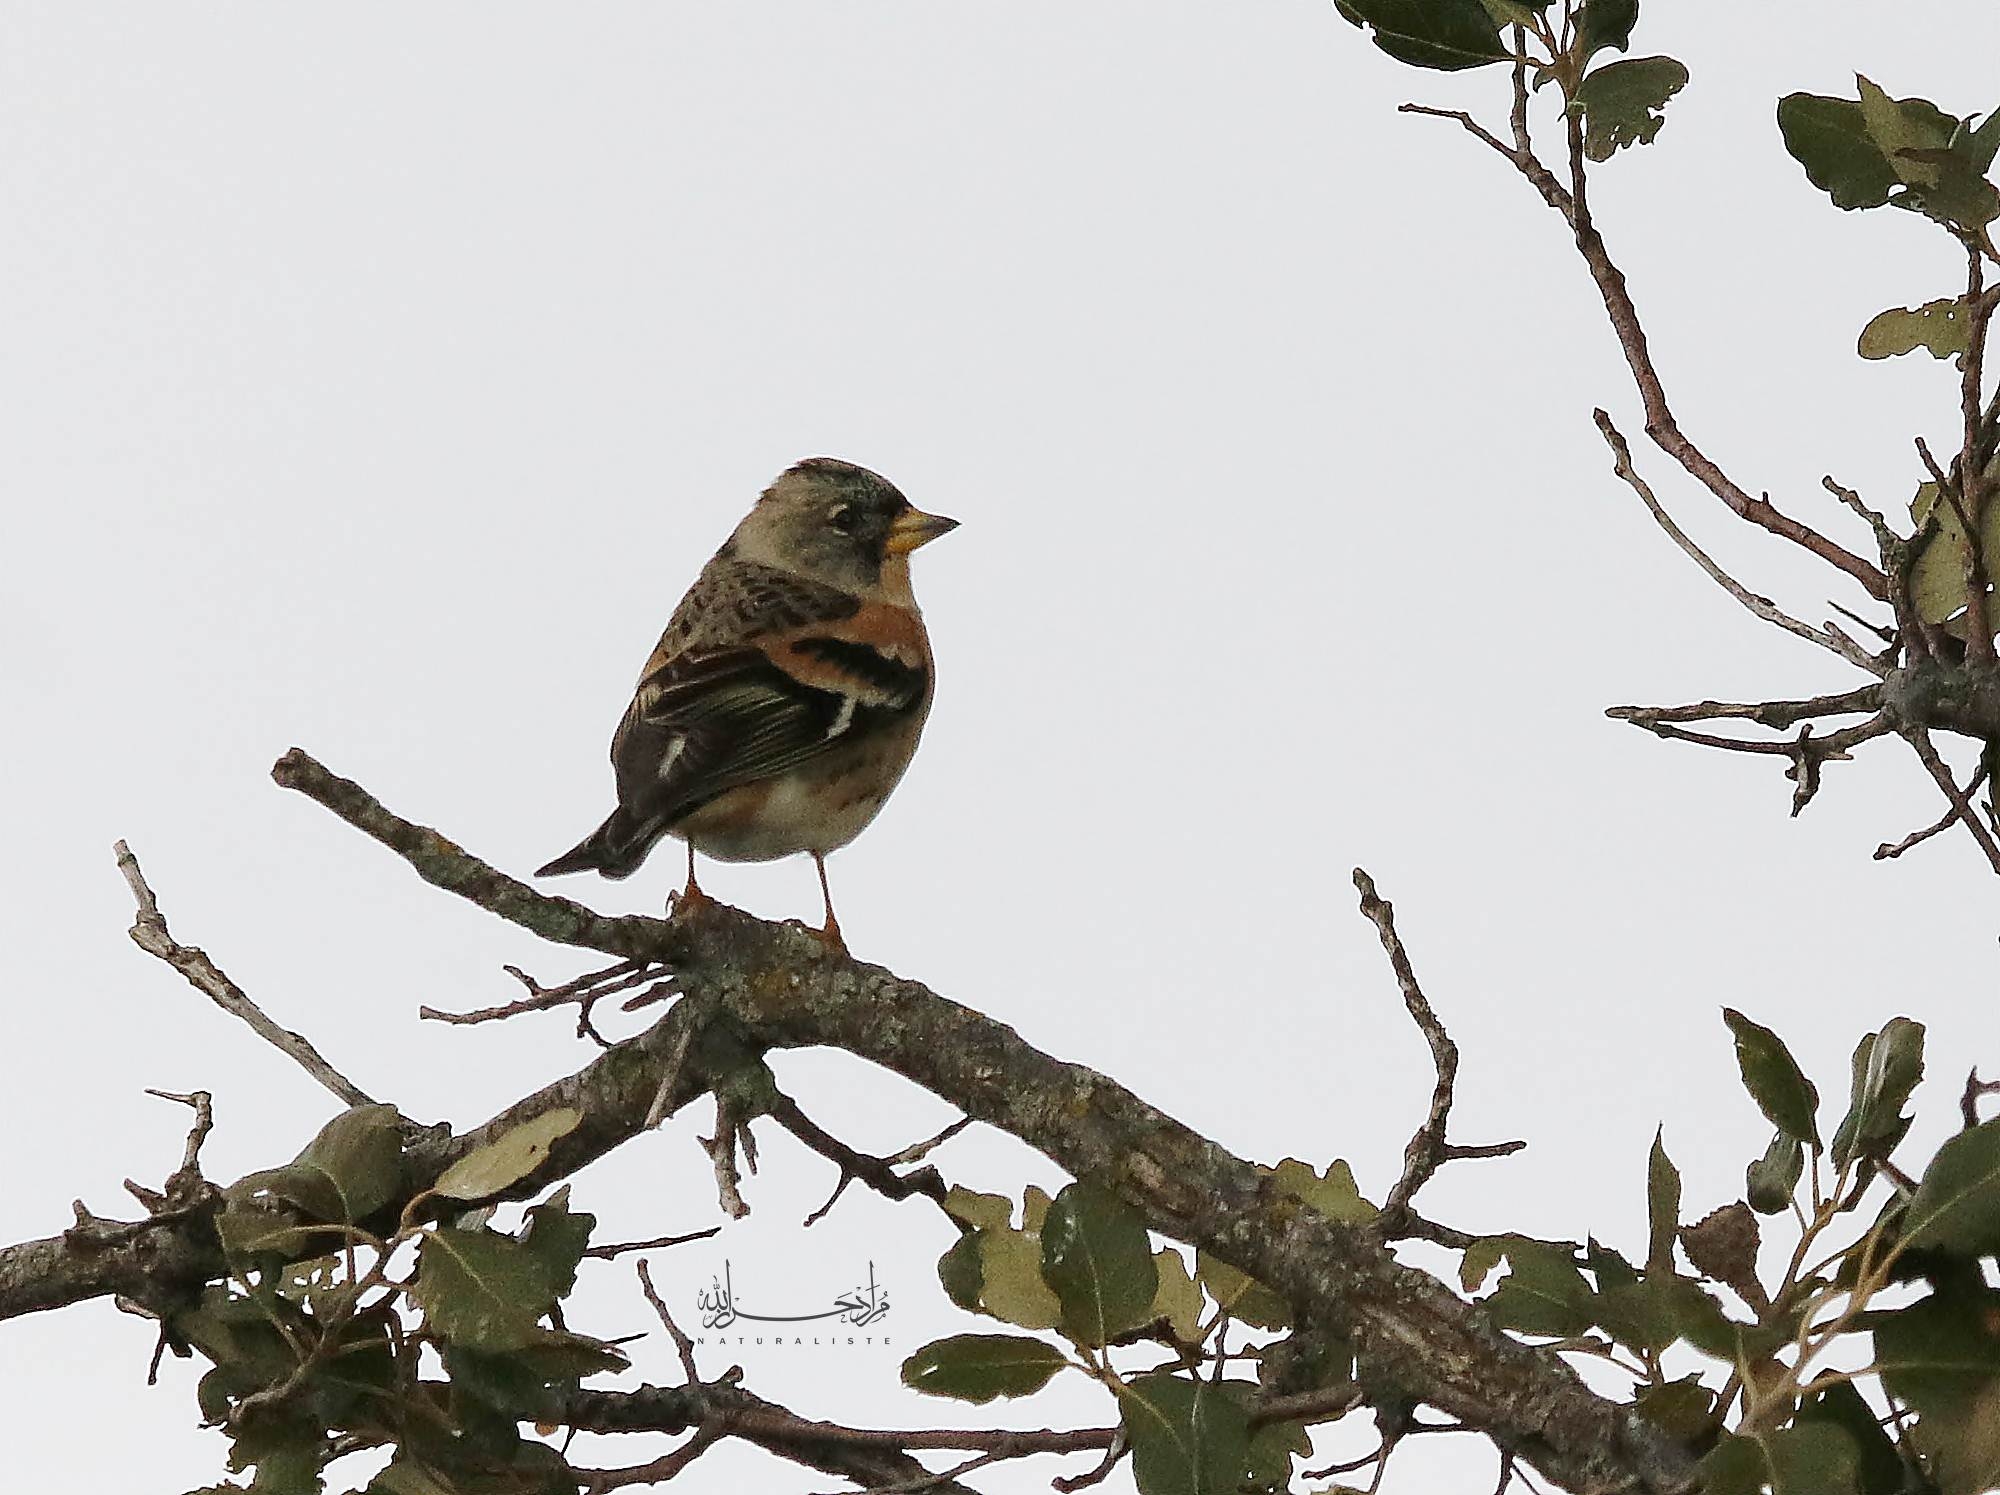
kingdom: Animalia
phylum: Chordata
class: Aves
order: Passeriformes
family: Fringillidae
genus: Fringilla
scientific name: Fringilla montifringilla
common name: Brambling
